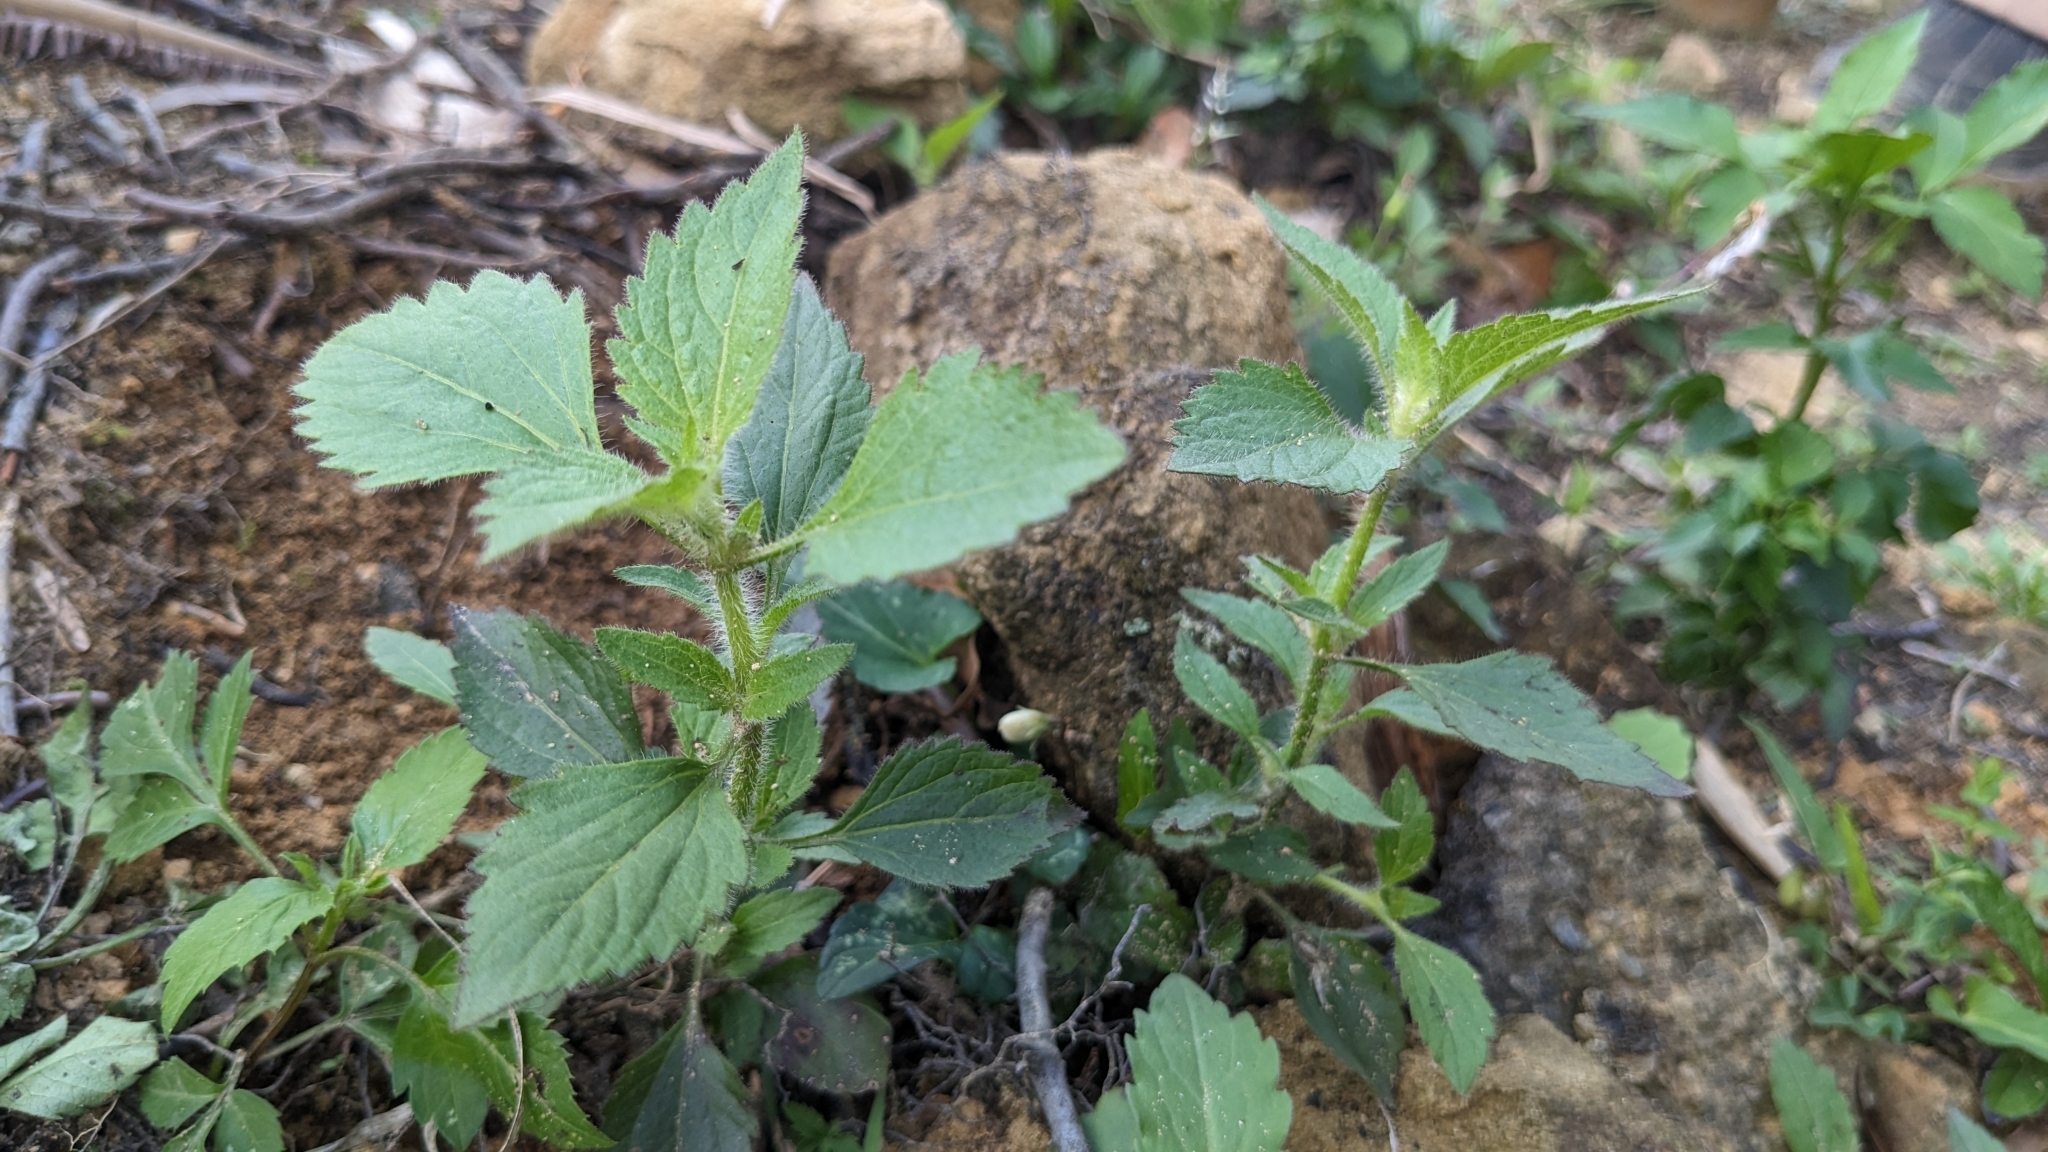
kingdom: Plantae
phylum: Tracheophyta
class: Magnoliopsida
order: Asterales
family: Asteraceae
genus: Praxelis
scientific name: Praxelis clematidea
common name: Praxelis
